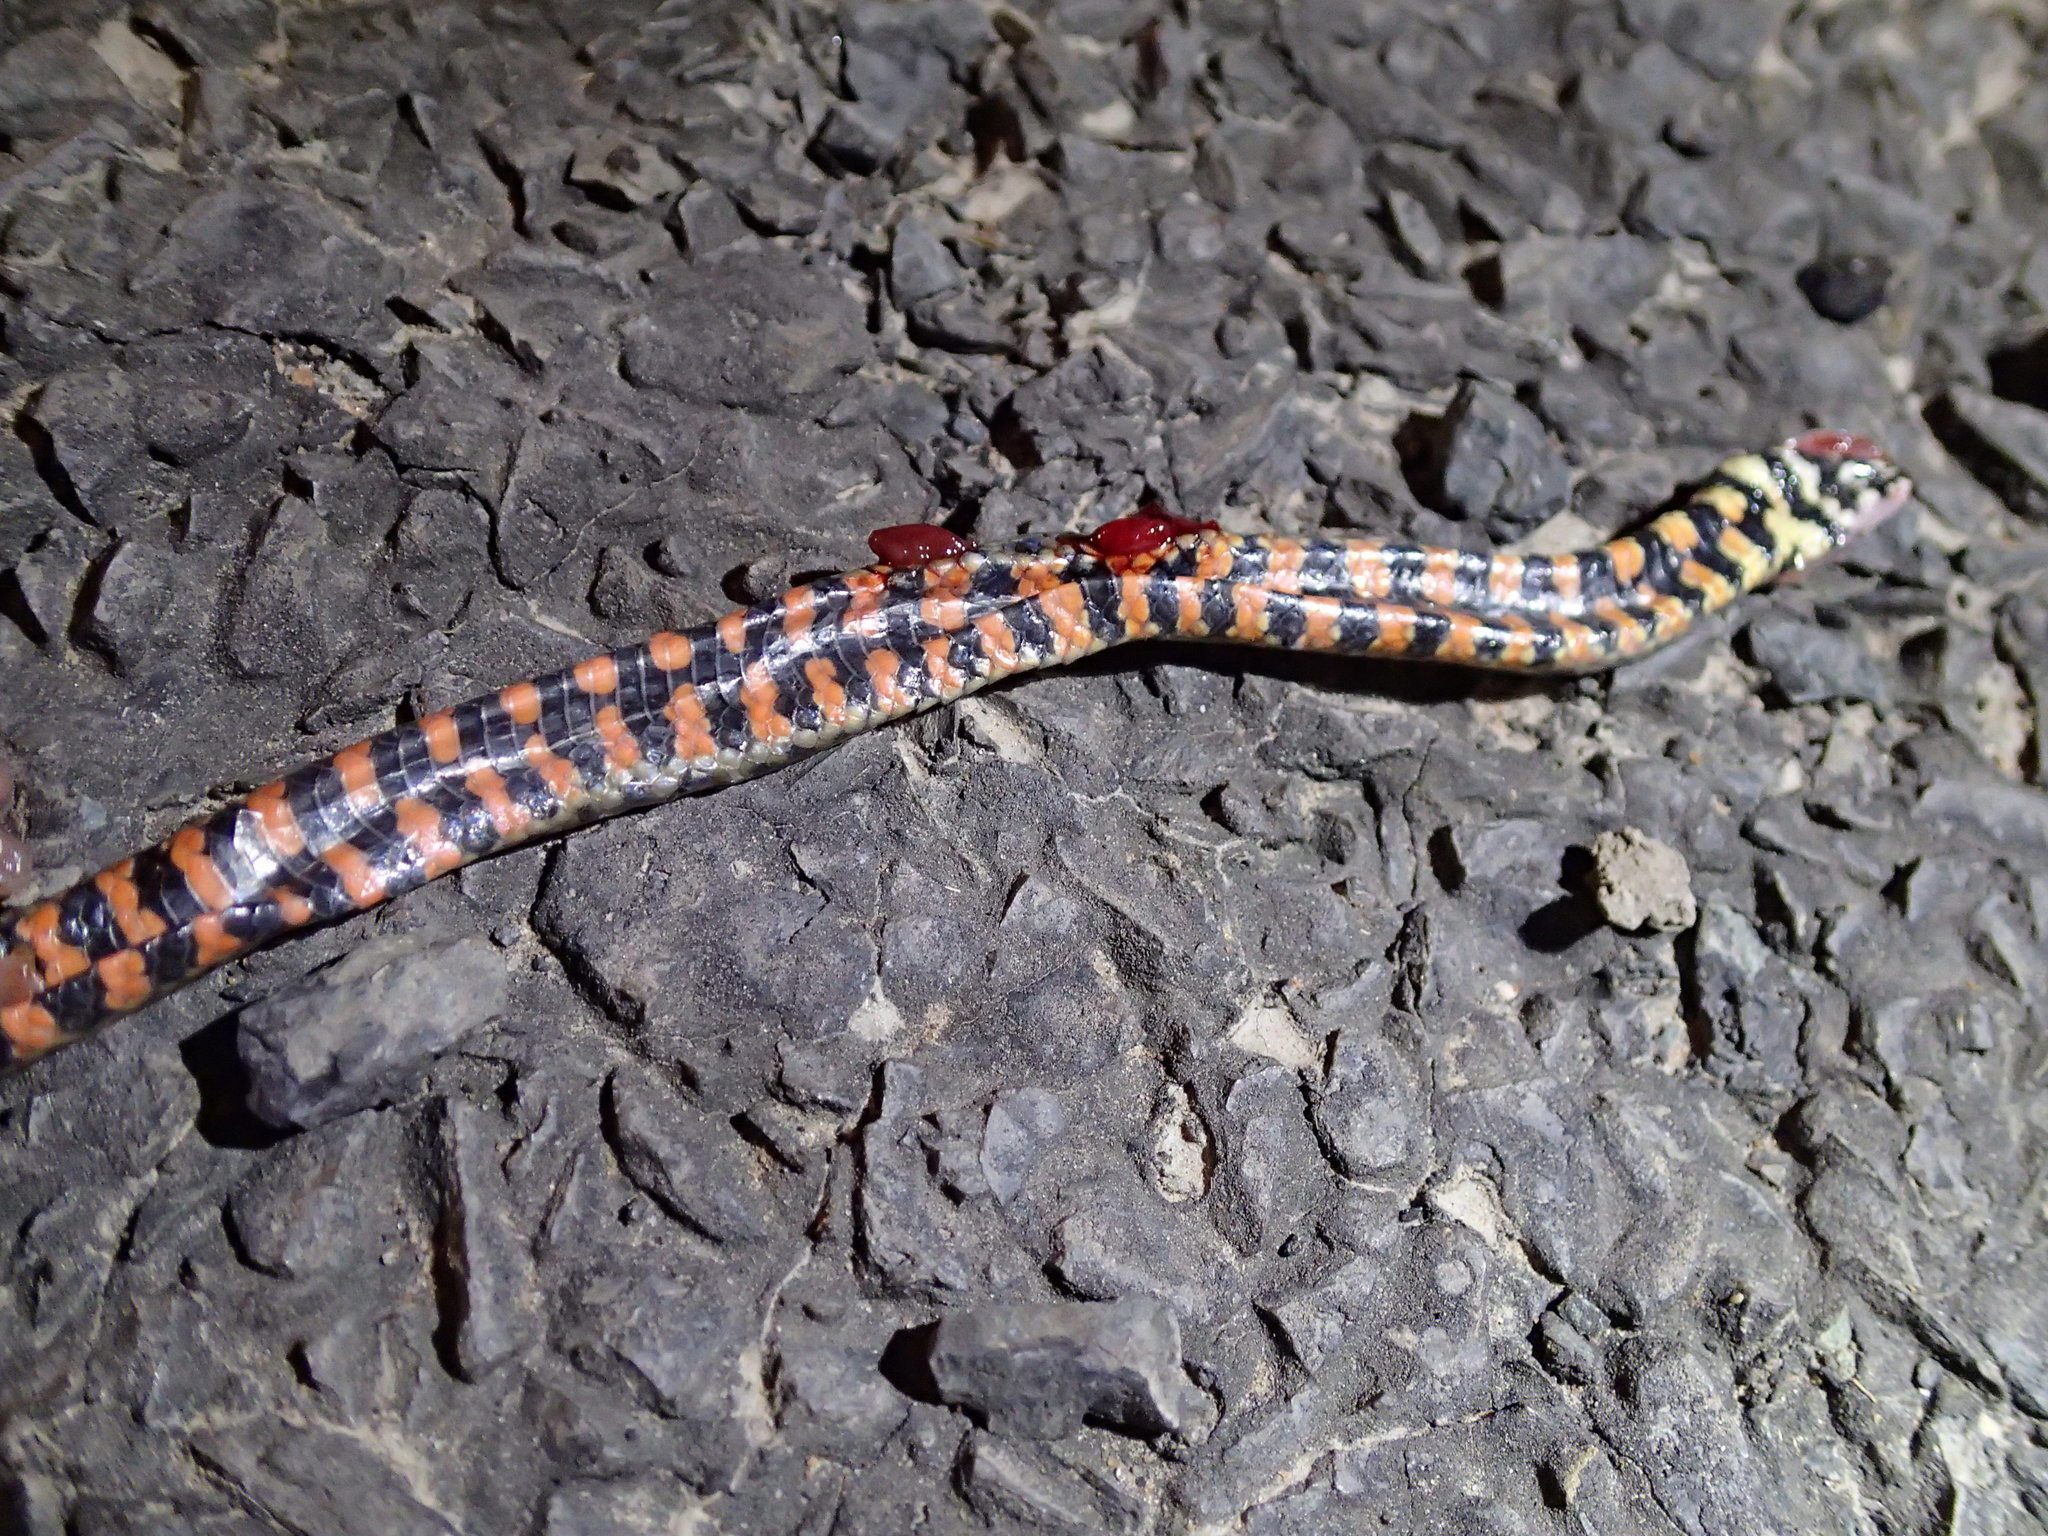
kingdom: Animalia
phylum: Chordata
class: Squamata
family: Colubridae
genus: Helicops
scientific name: Helicops leopardinus
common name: Leopard keelback
